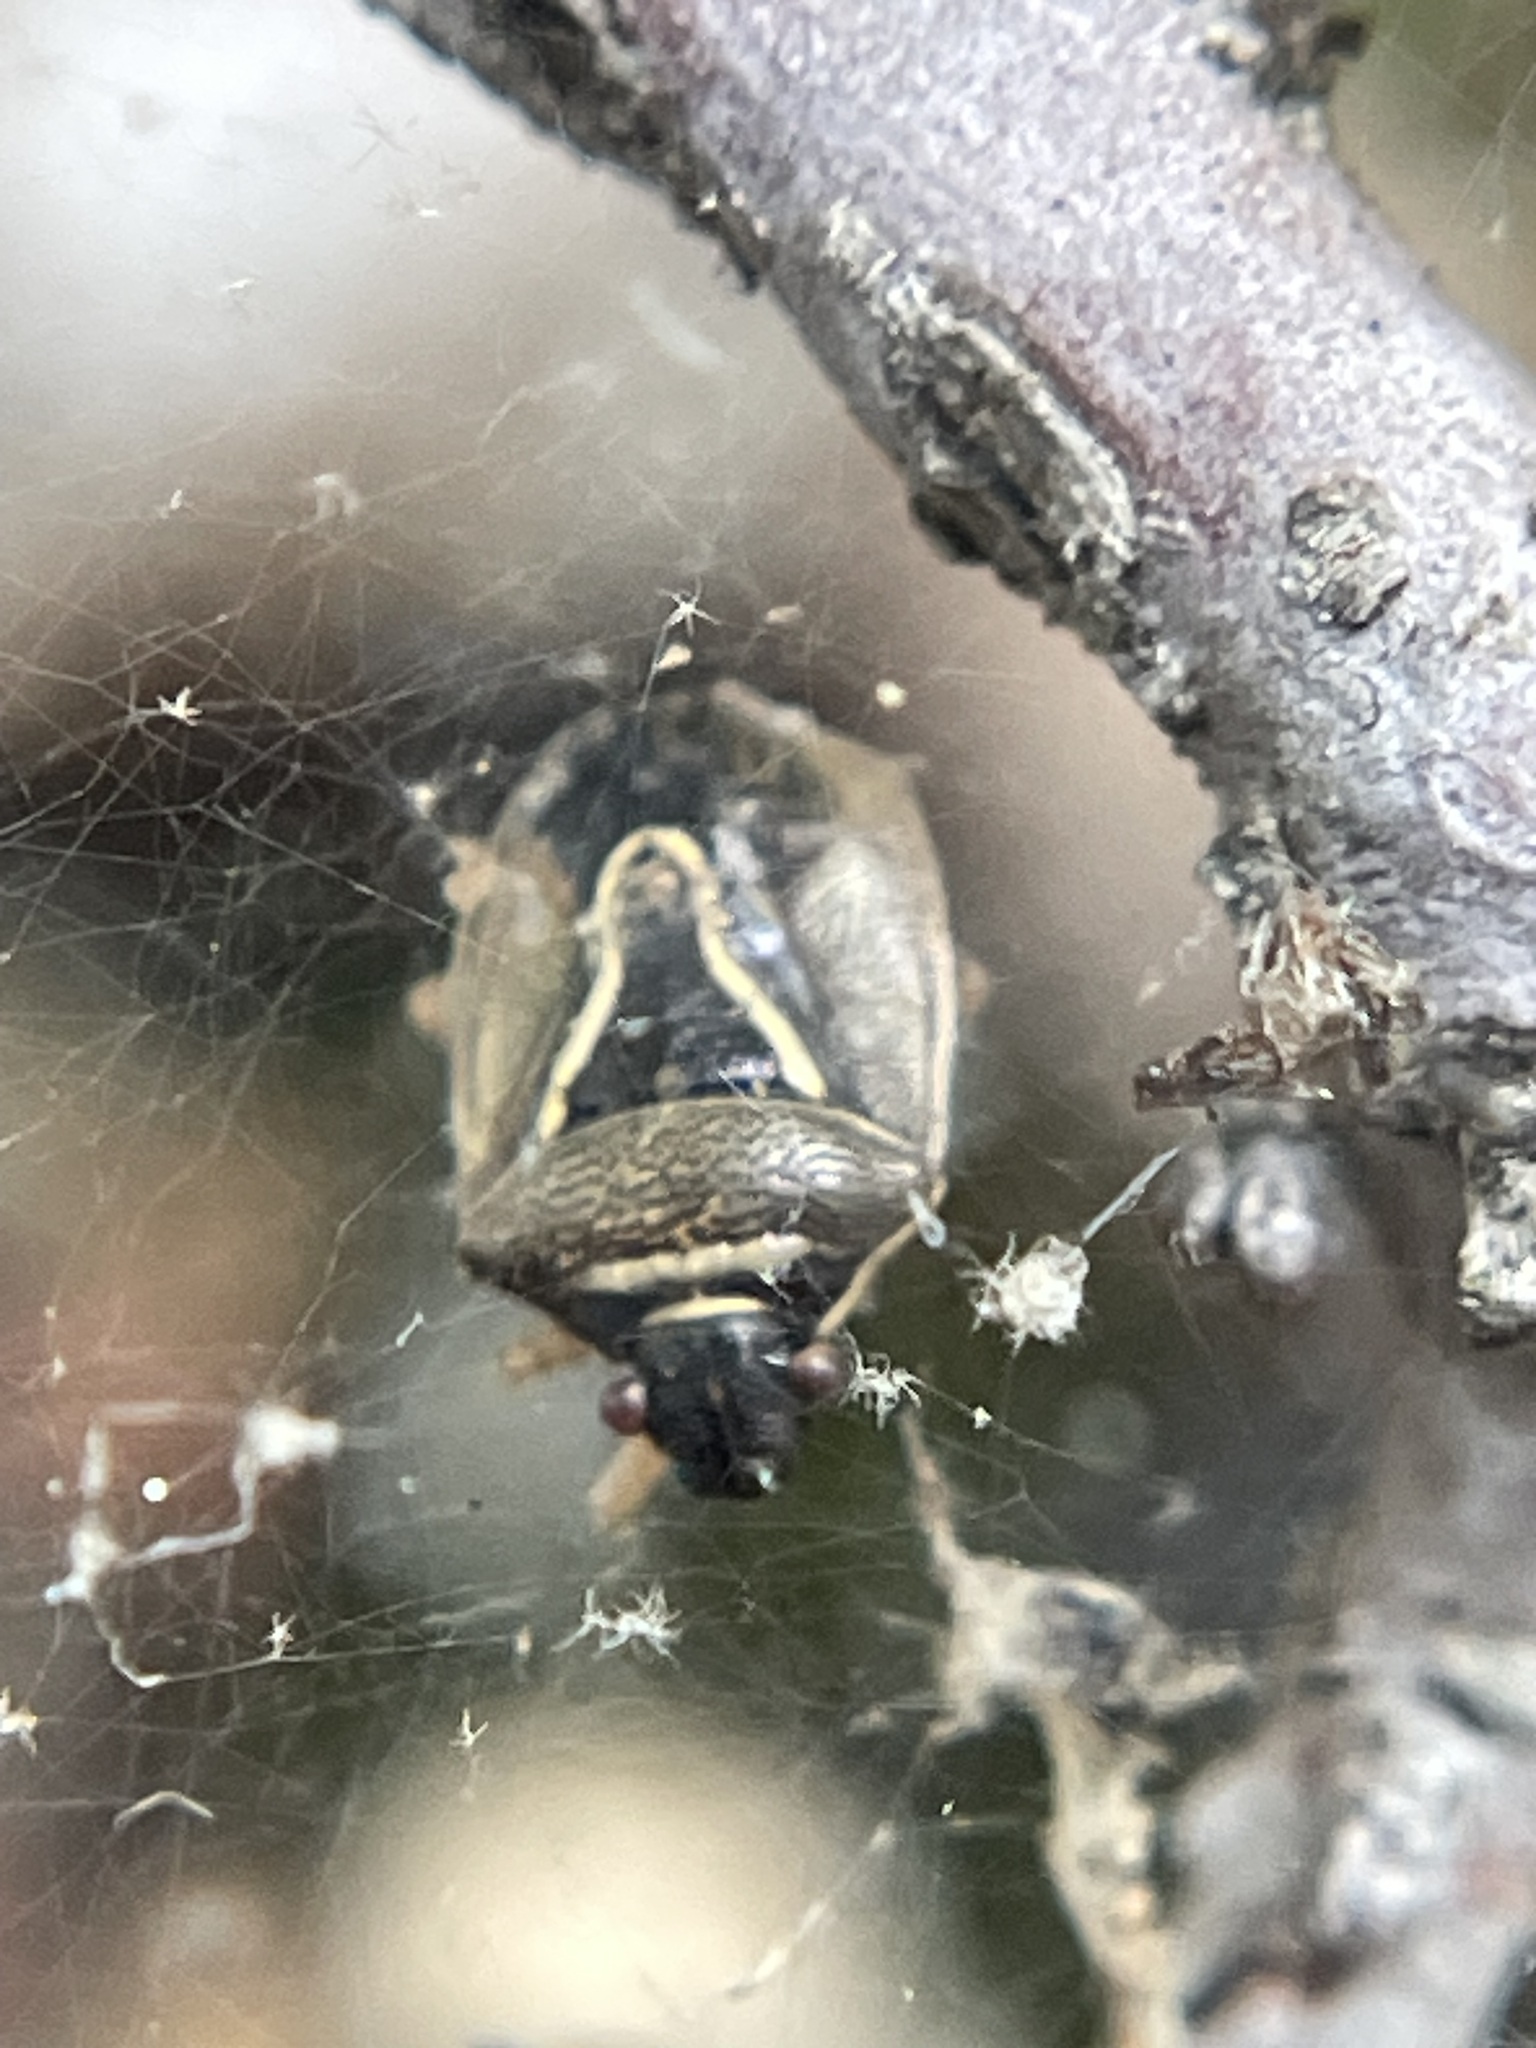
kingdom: Animalia
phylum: Arthropoda
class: Insecta
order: Hemiptera
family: Pentatomidae
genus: Mormidea
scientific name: Mormidea lugens
